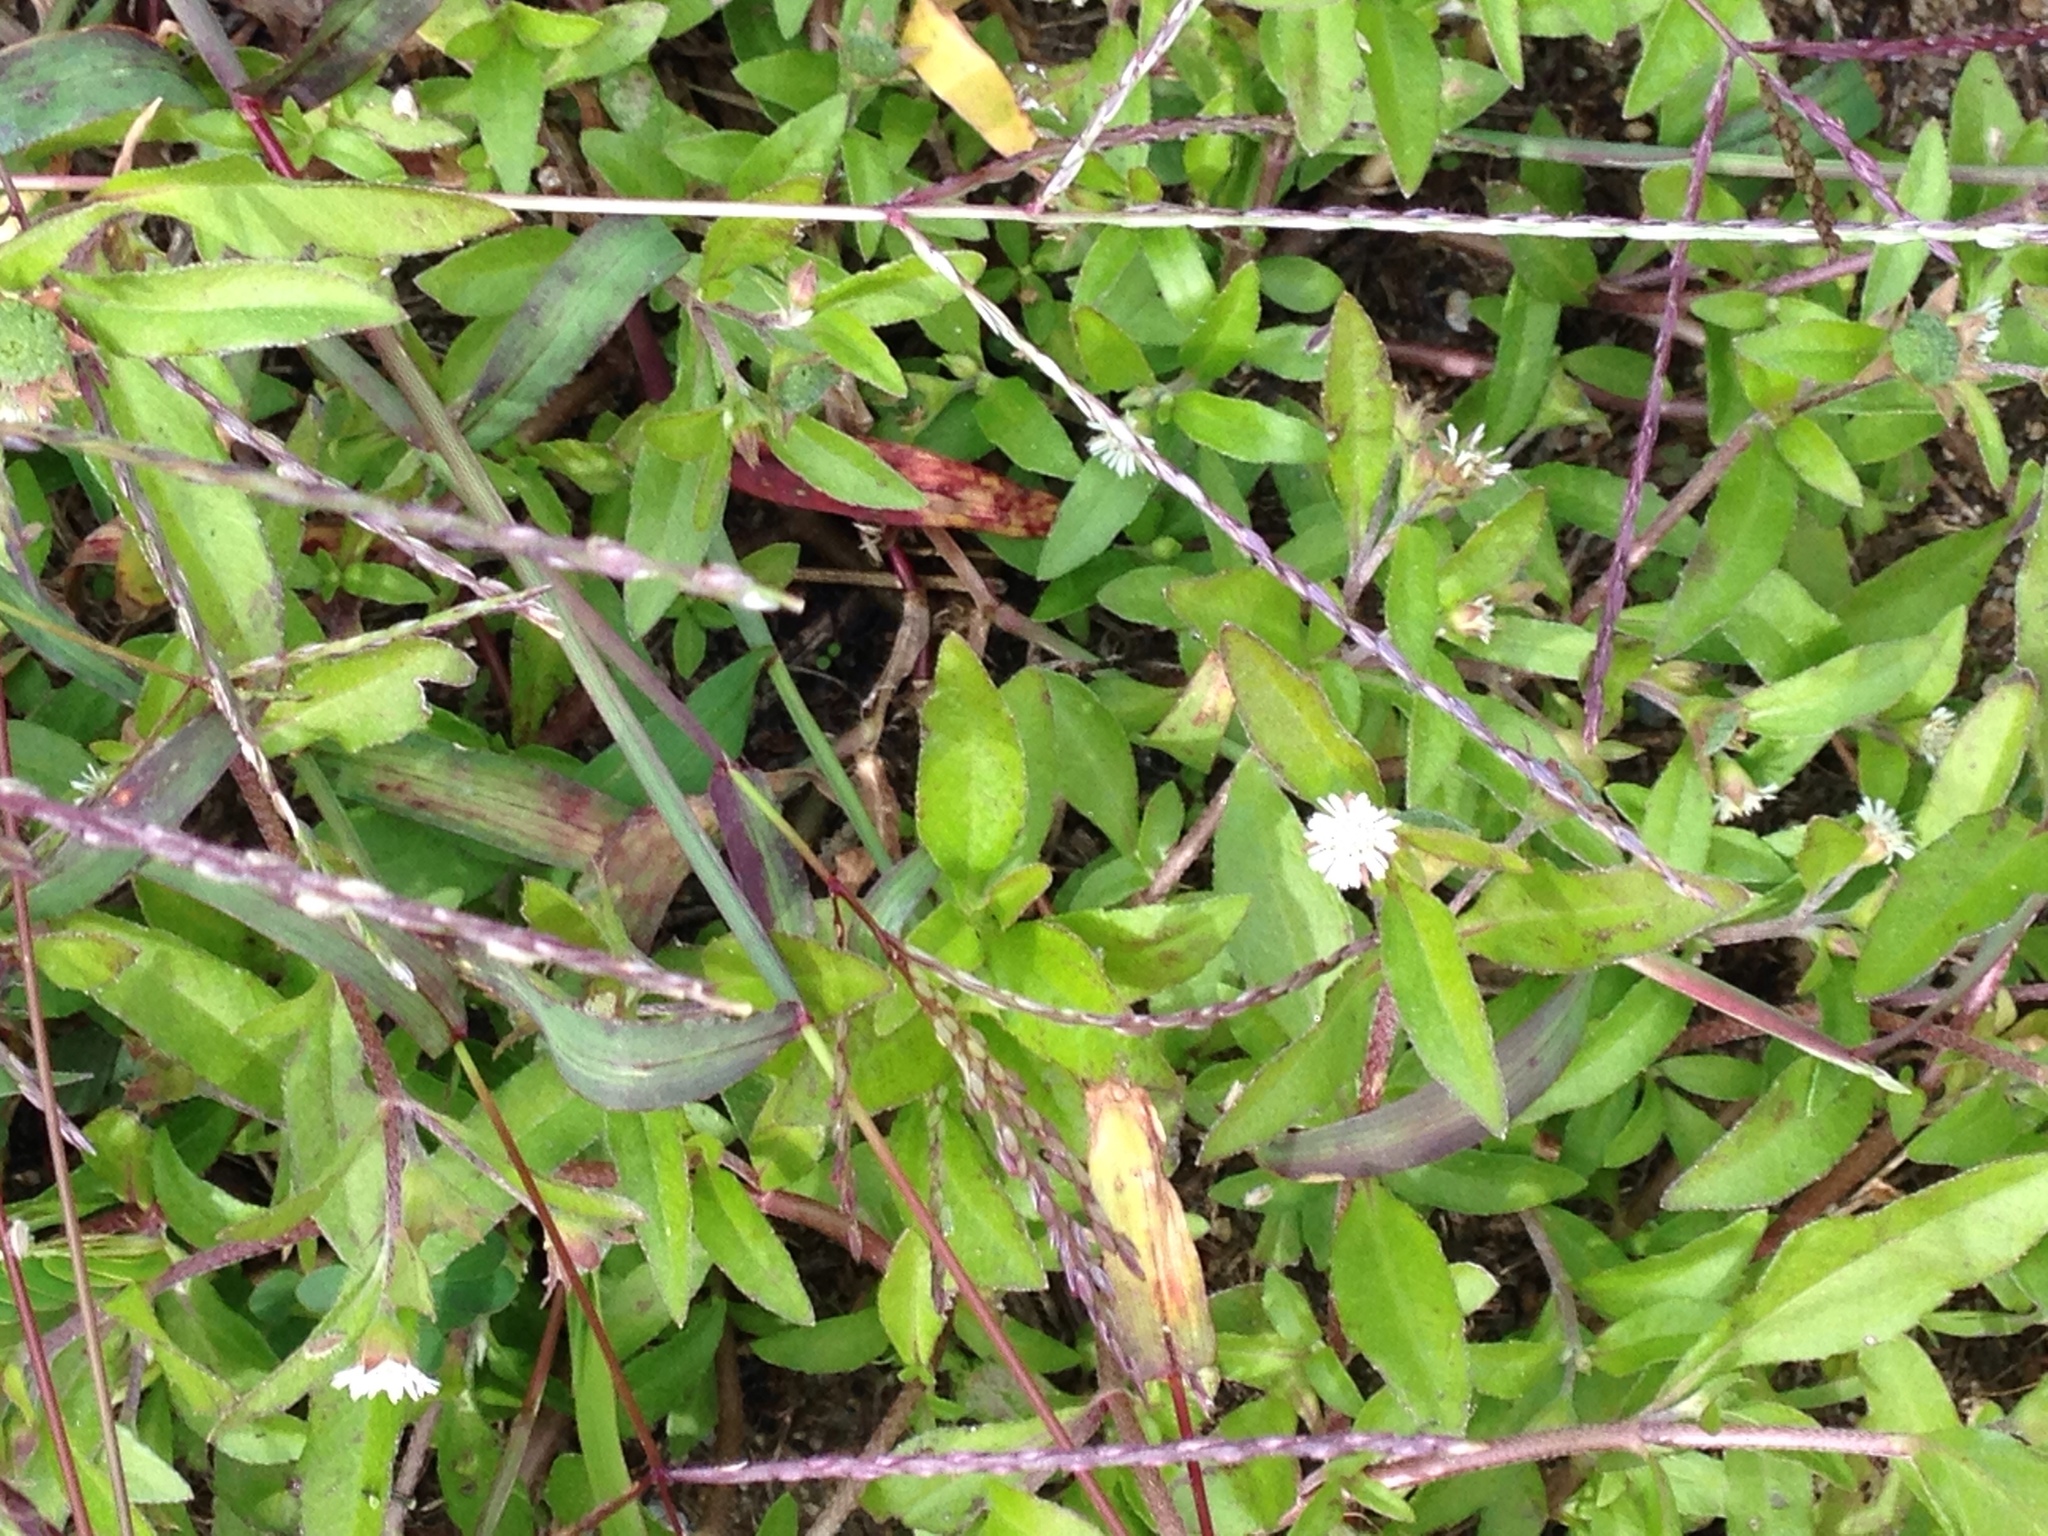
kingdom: Plantae
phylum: Tracheophyta
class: Magnoliopsida
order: Asterales
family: Asteraceae
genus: Eclipta
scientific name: Eclipta prostrata
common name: False daisy
